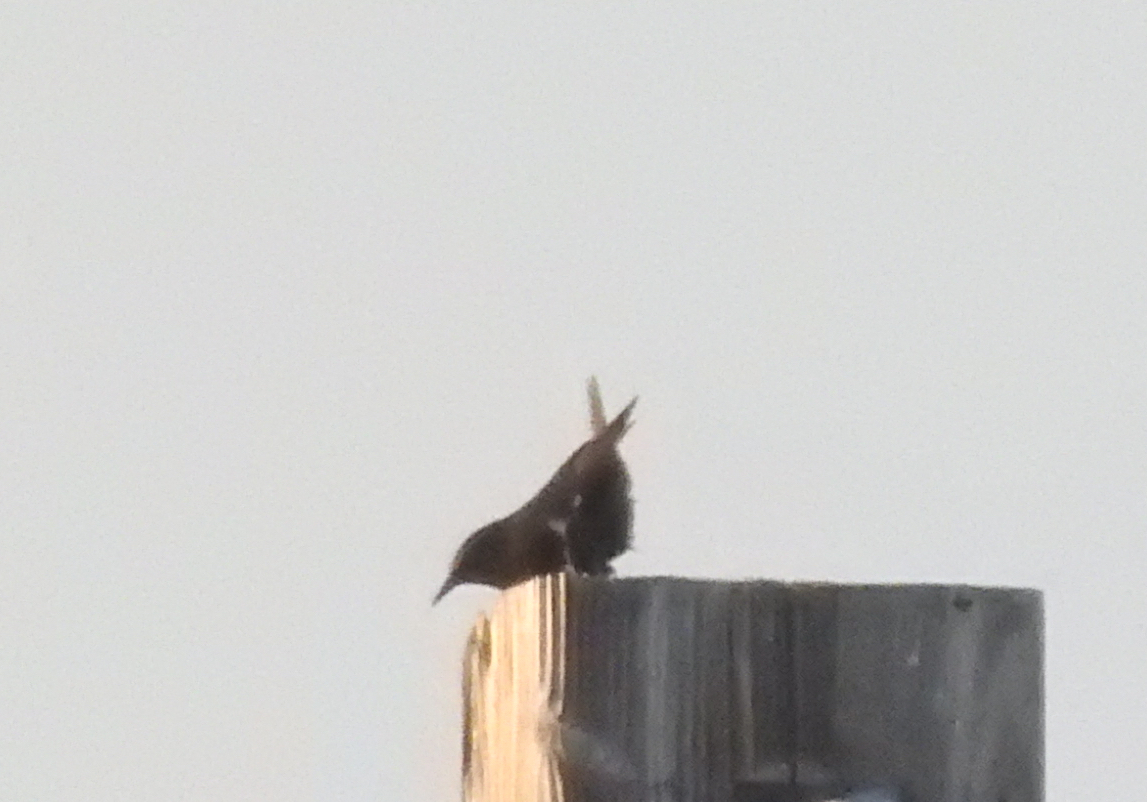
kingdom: Animalia
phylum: Chordata
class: Aves
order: Passeriformes
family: Sturnidae
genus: Sturnus
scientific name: Sturnus vulgaris
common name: Common starling
